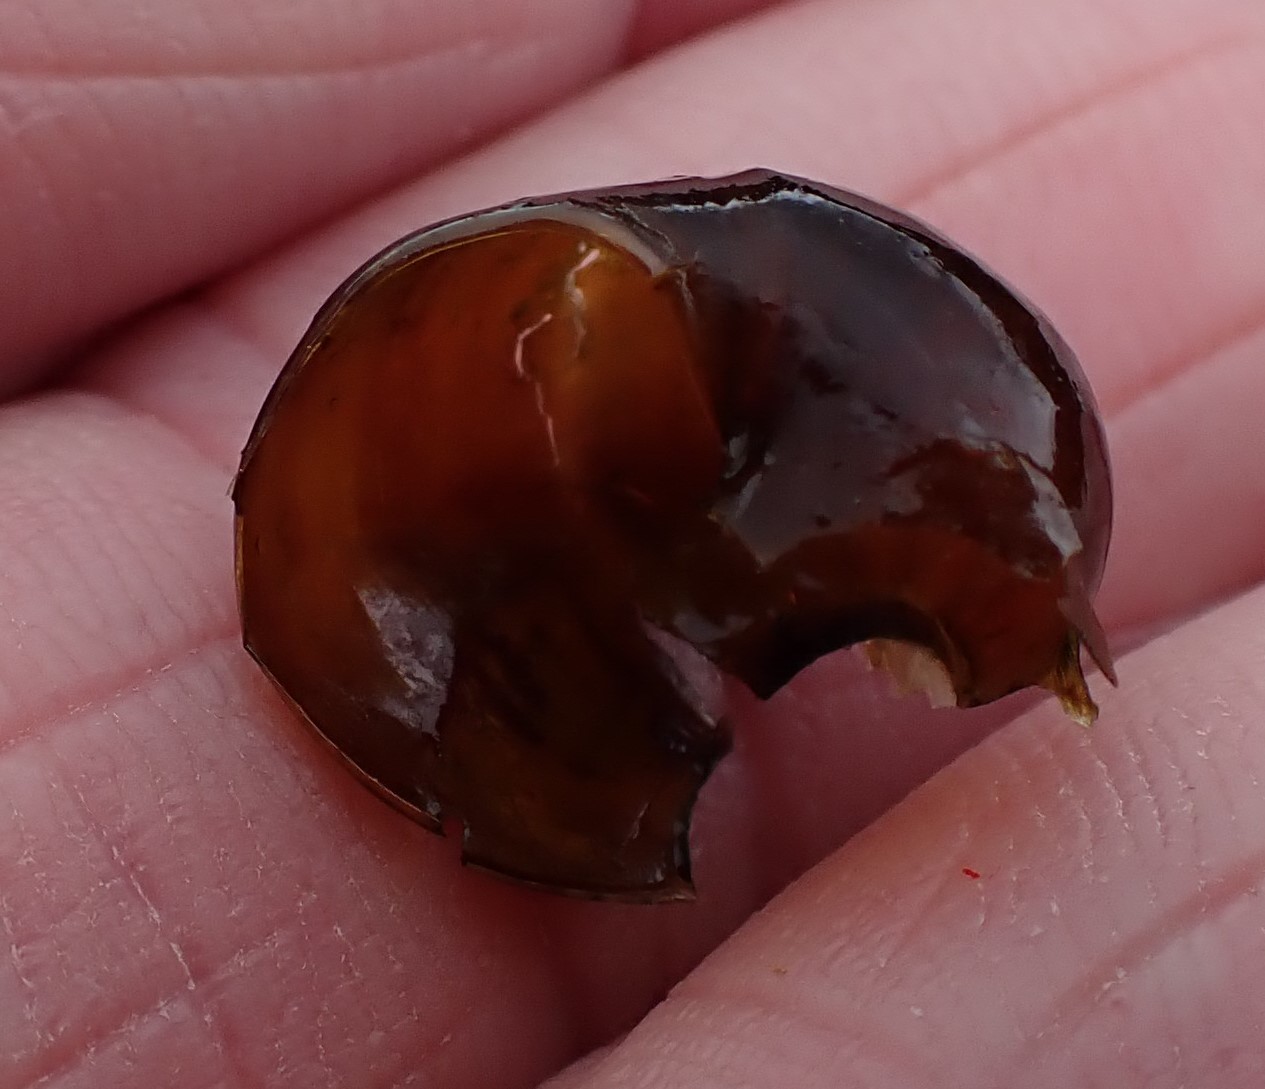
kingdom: Animalia
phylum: Mollusca
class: Gastropoda
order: Stylommatophora
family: Rhytididae
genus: Victaphanta
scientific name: Victaphanta milligani
